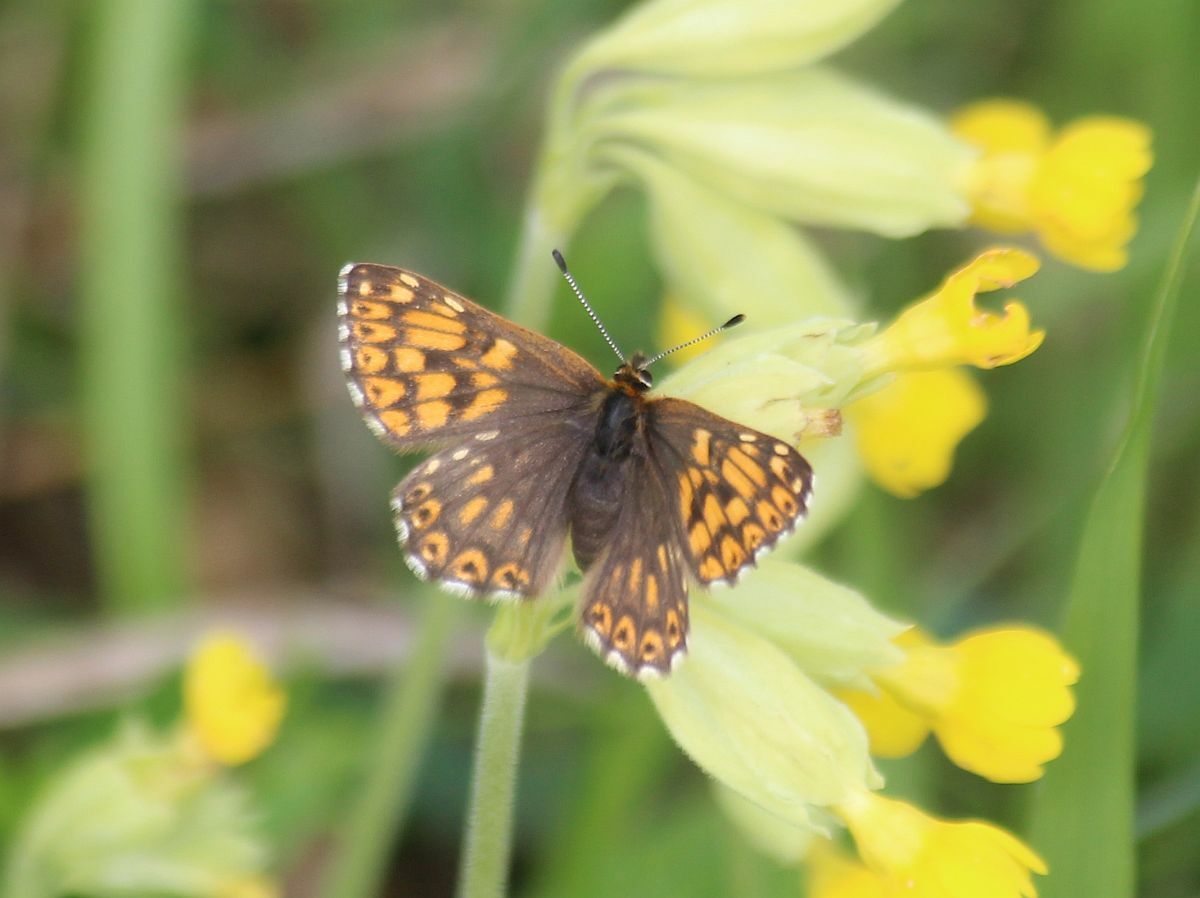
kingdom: Animalia
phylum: Arthropoda
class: Insecta
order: Lepidoptera
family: Riodinidae
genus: Hamearis
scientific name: Hamearis lucina
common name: Duke of burgundy fritillary
